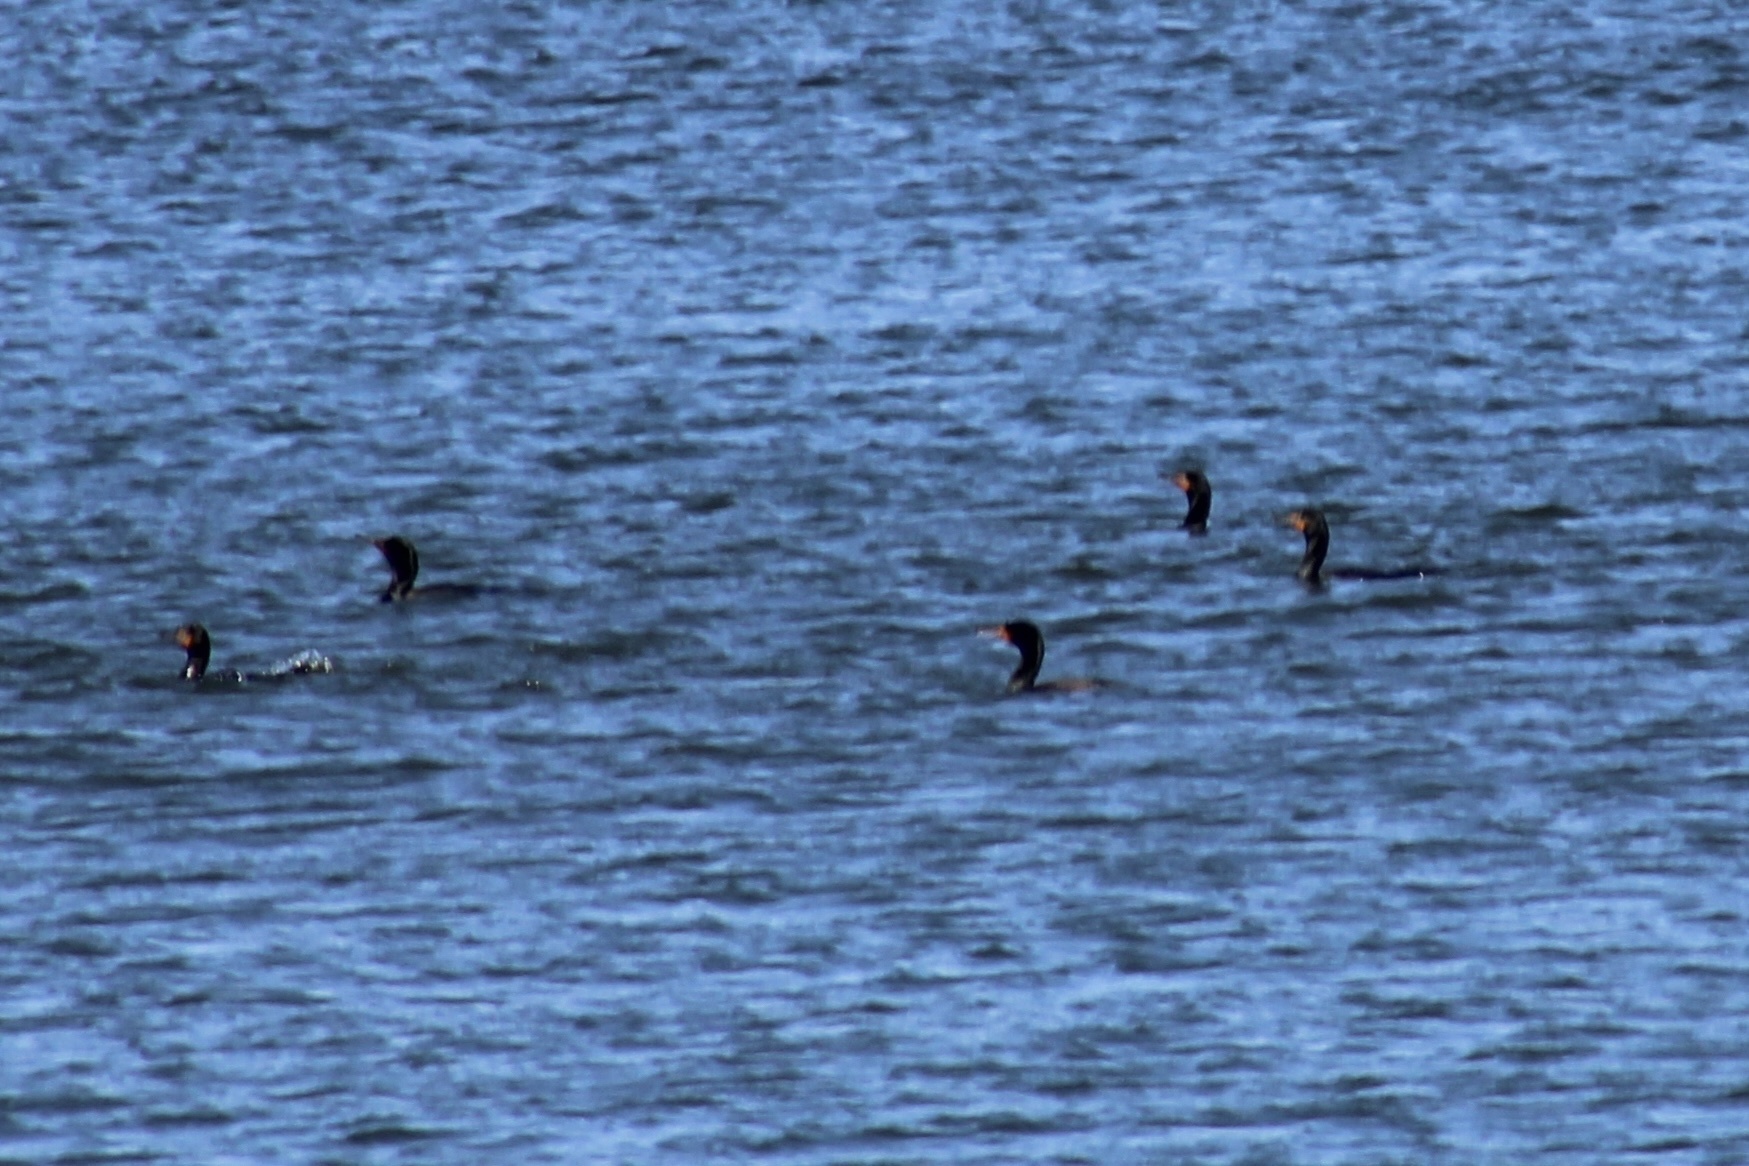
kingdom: Animalia
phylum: Chordata
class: Aves
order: Suliformes
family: Phalacrocoracidae
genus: Phalacrocorax
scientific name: Phalacrocorax auritus
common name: Double-crested cormorant
